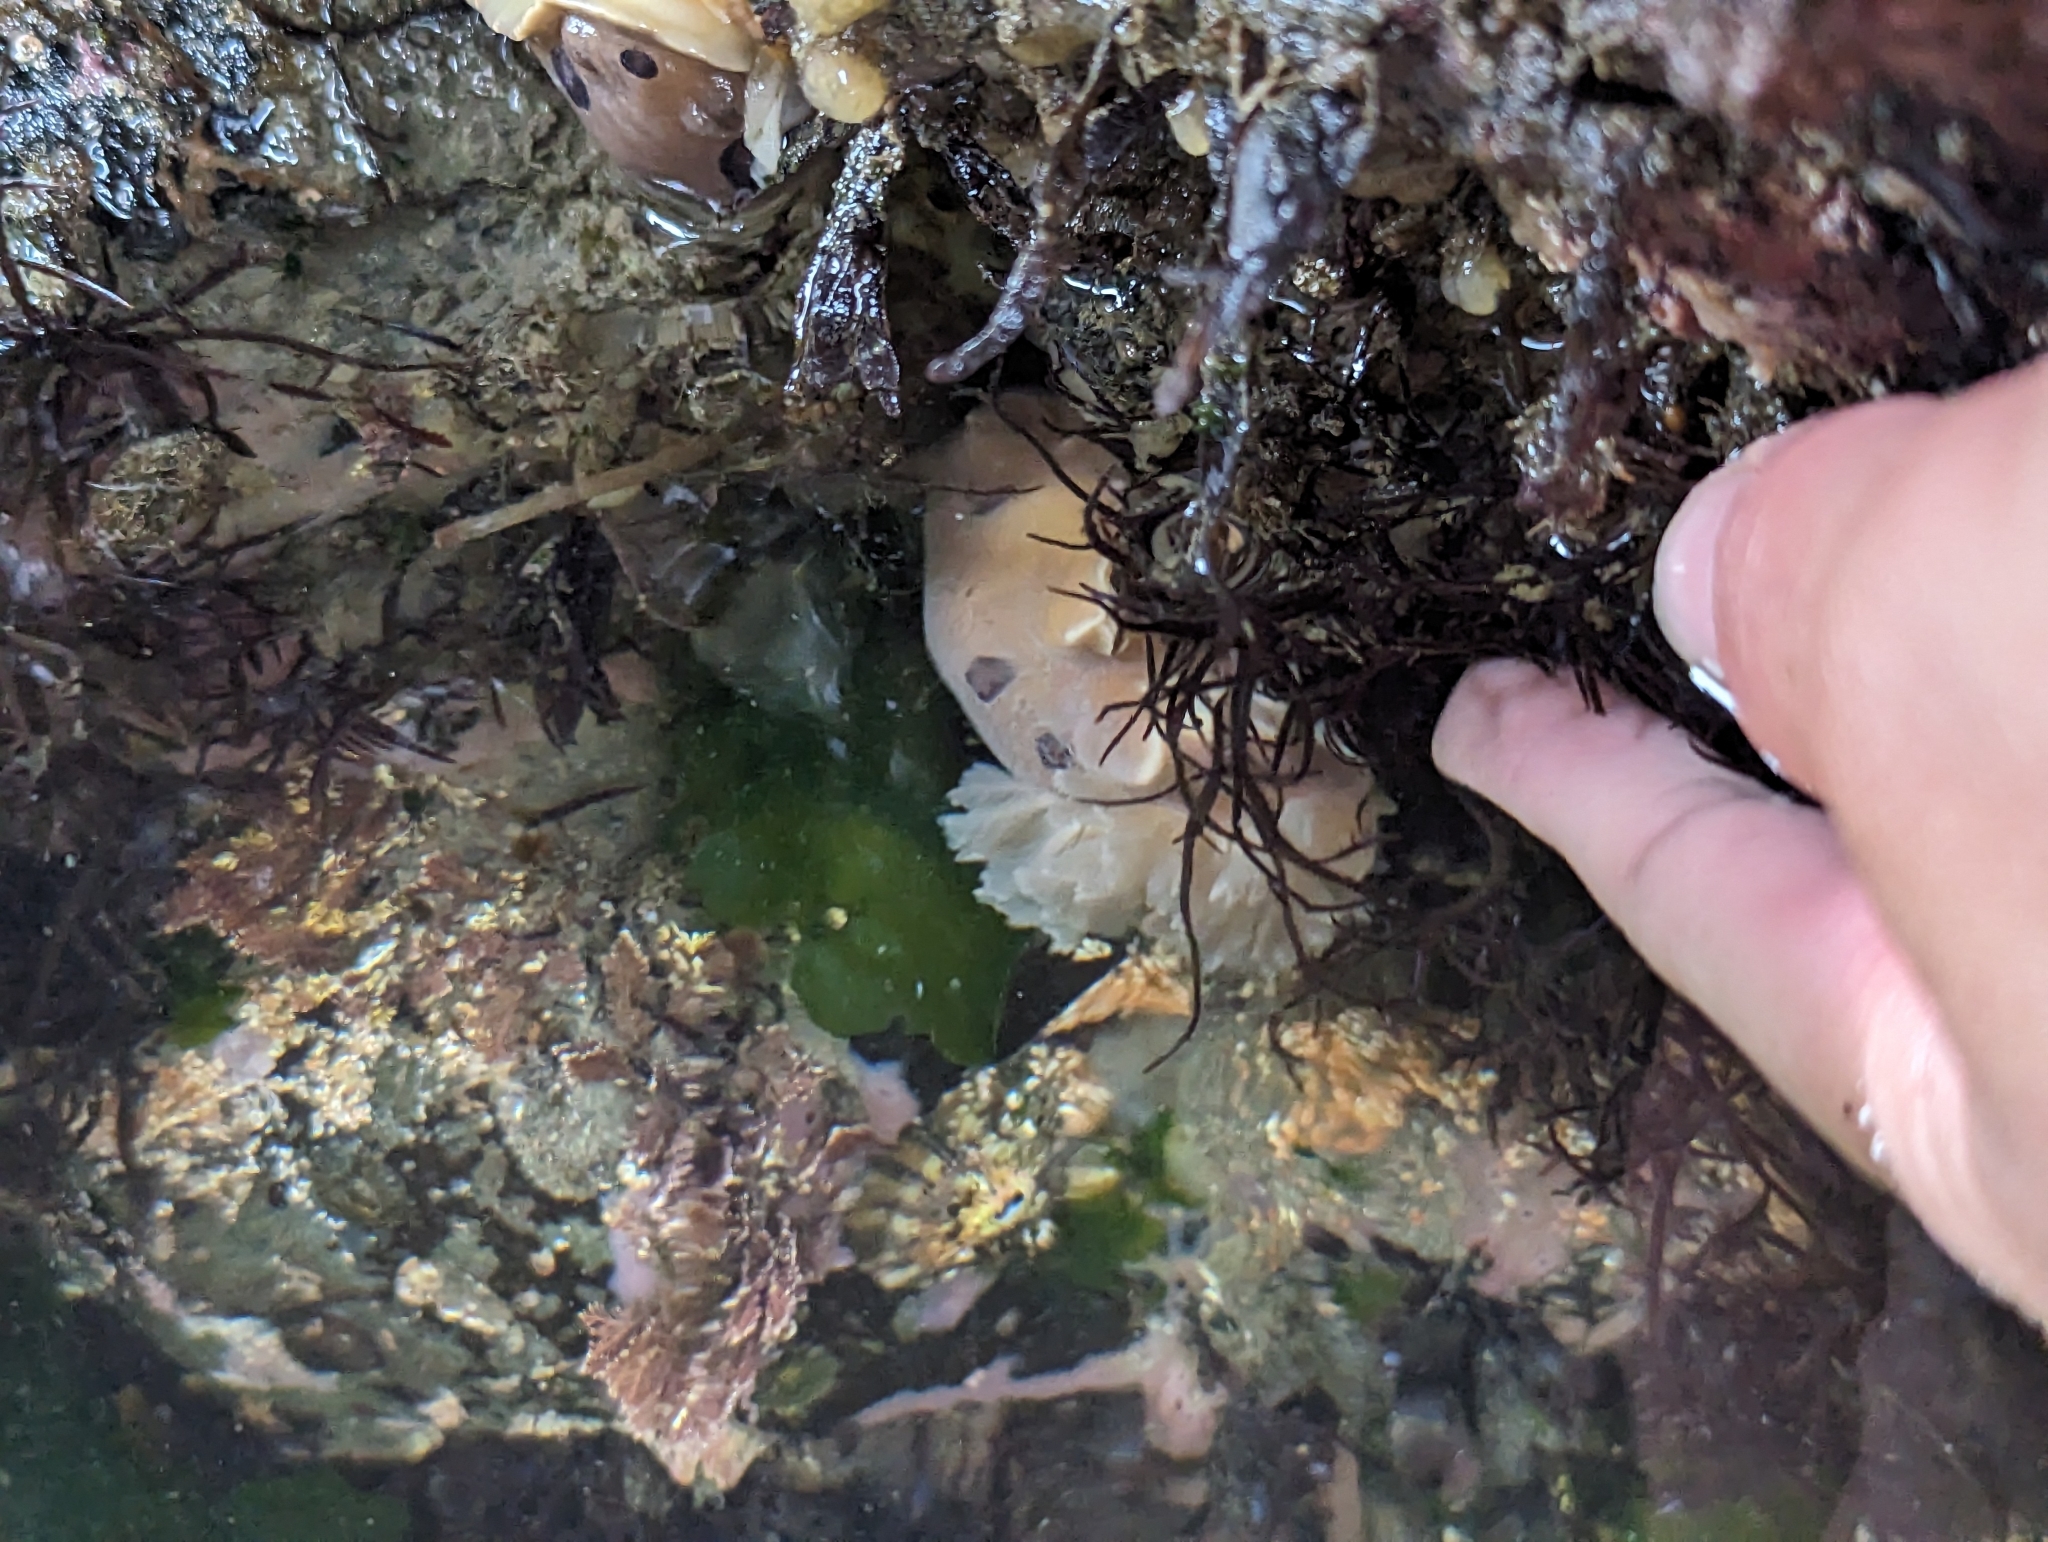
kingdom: Animalia
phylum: Mollusca
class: Gastropoda
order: Nudibranchia
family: Discodorididae
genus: Diaulula
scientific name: Diaulula sandiegensis
